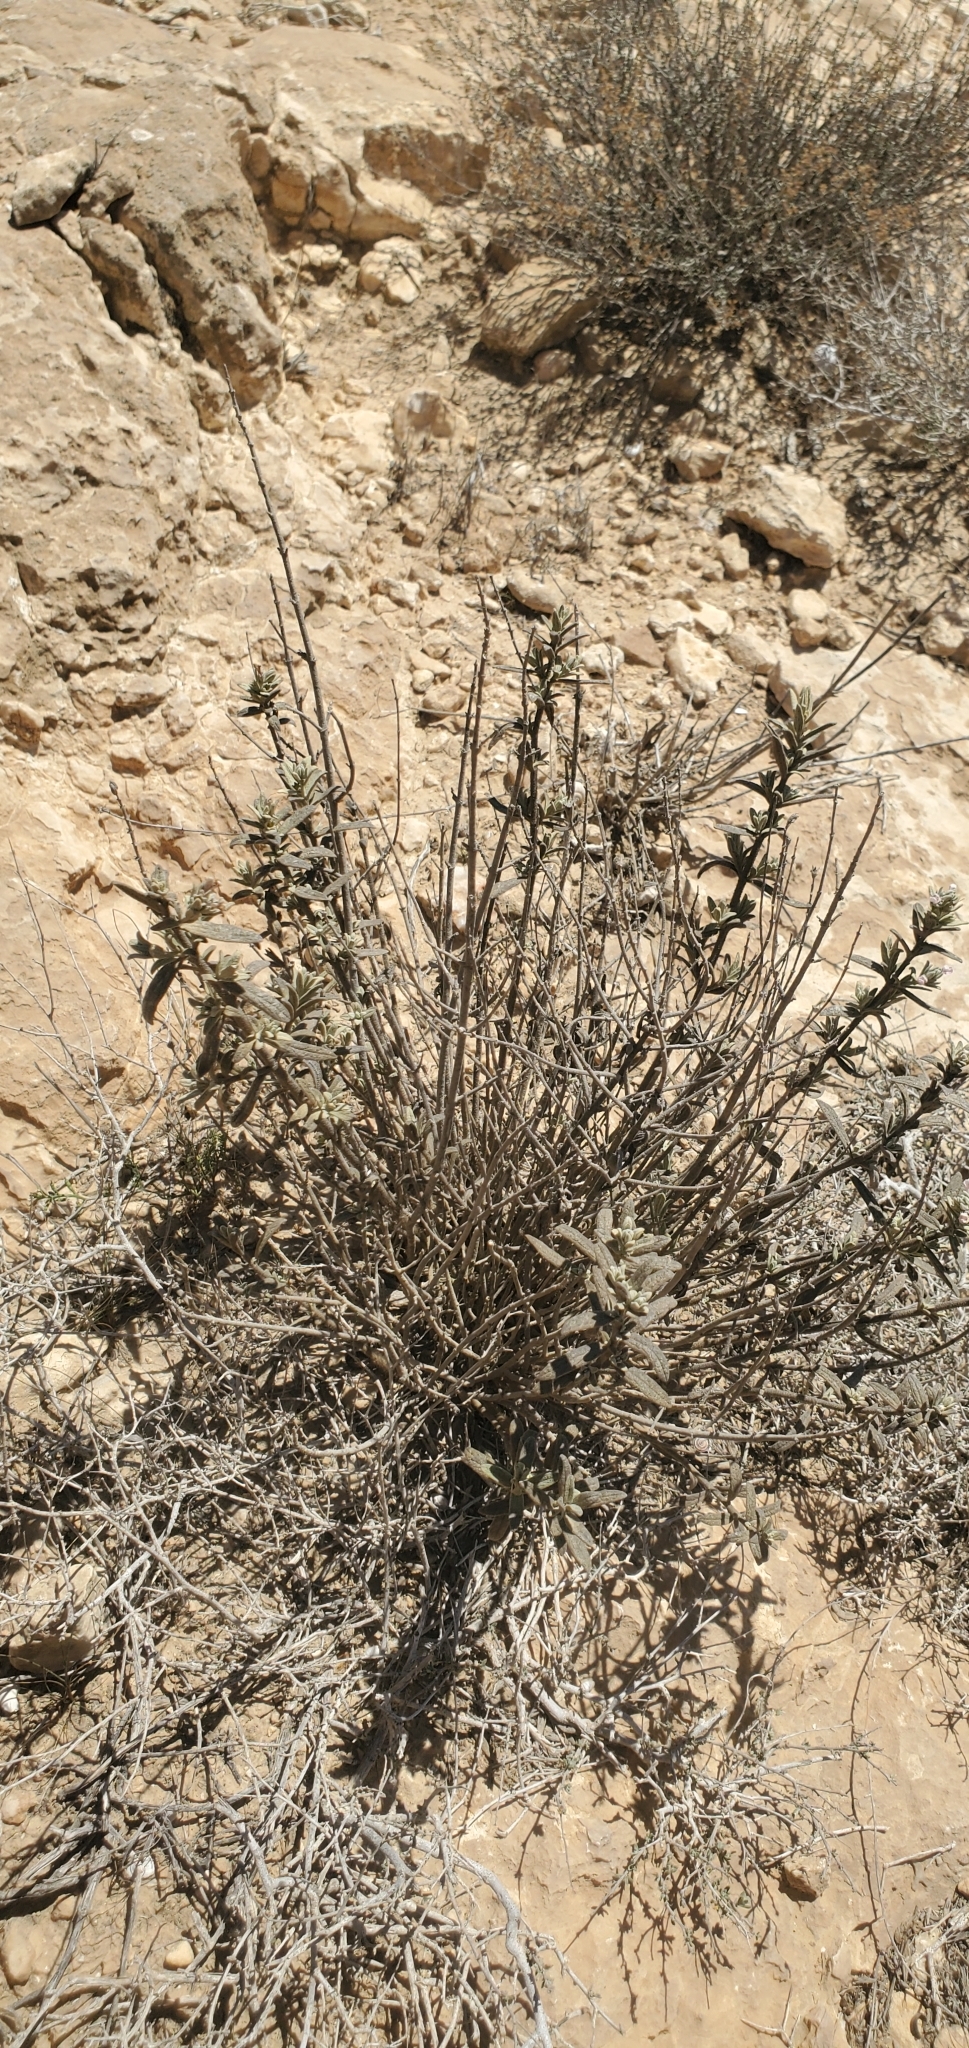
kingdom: Plantae
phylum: Tracheophyta
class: Magnoliopsida
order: Lamiales
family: Lamiaceae
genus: Stachys
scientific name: Stachys aegyptiaca
